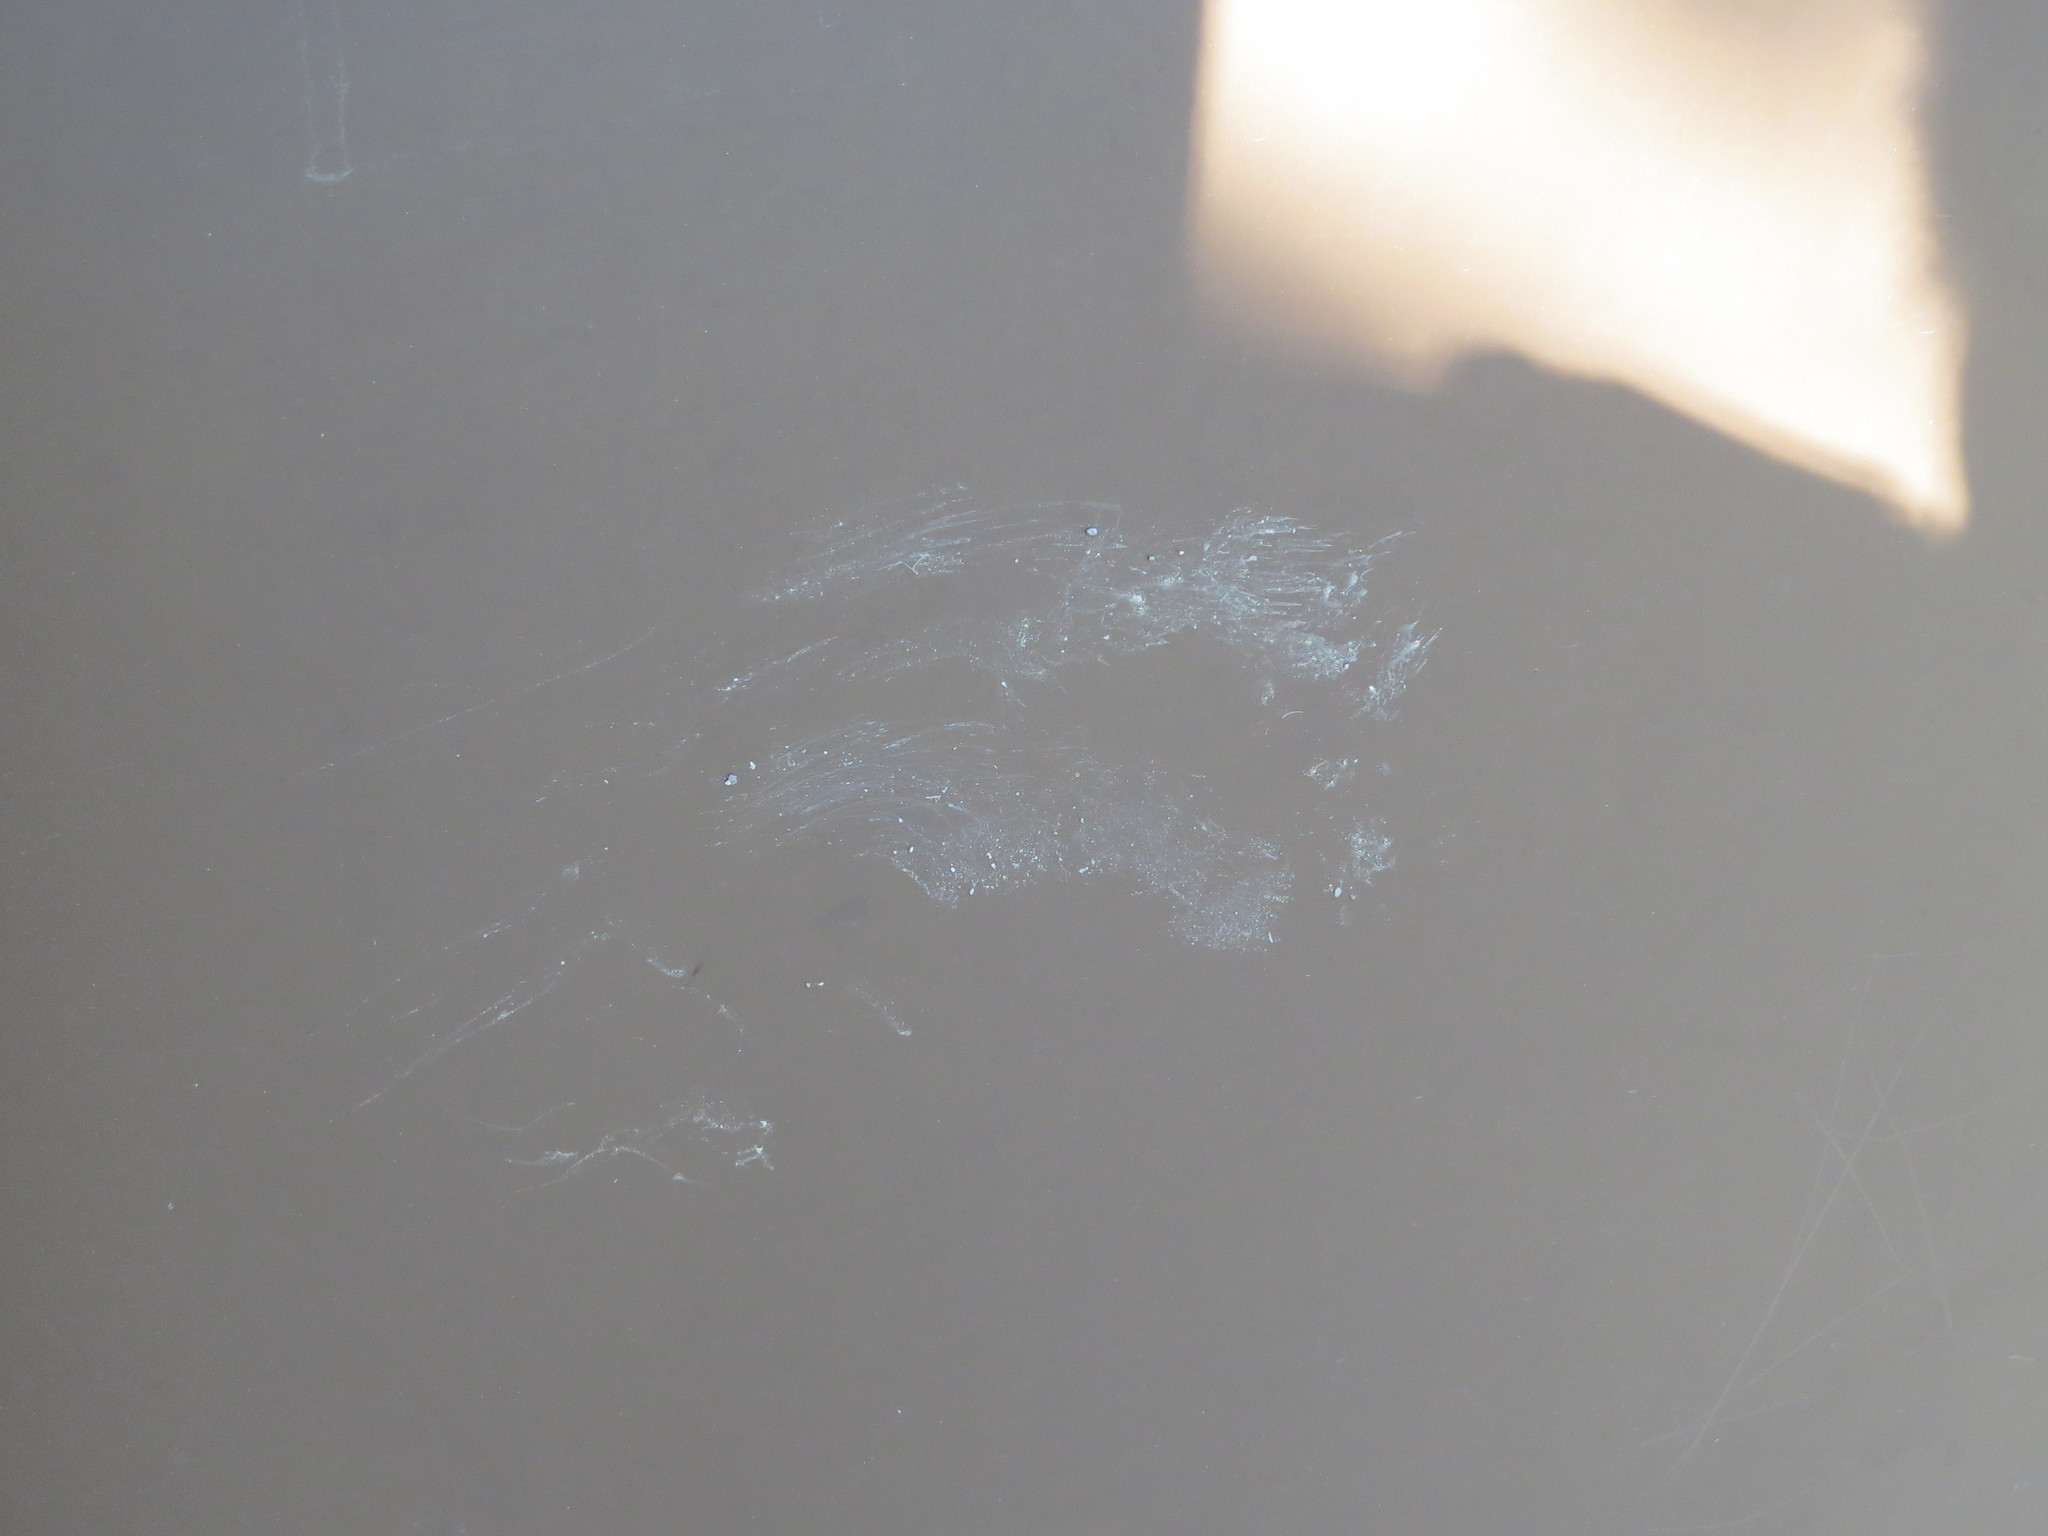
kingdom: Animalia
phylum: Chordata
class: Mammalia
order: Carnivora
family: Ursidae
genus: Ursus
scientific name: Ursus americanus
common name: American black bear
